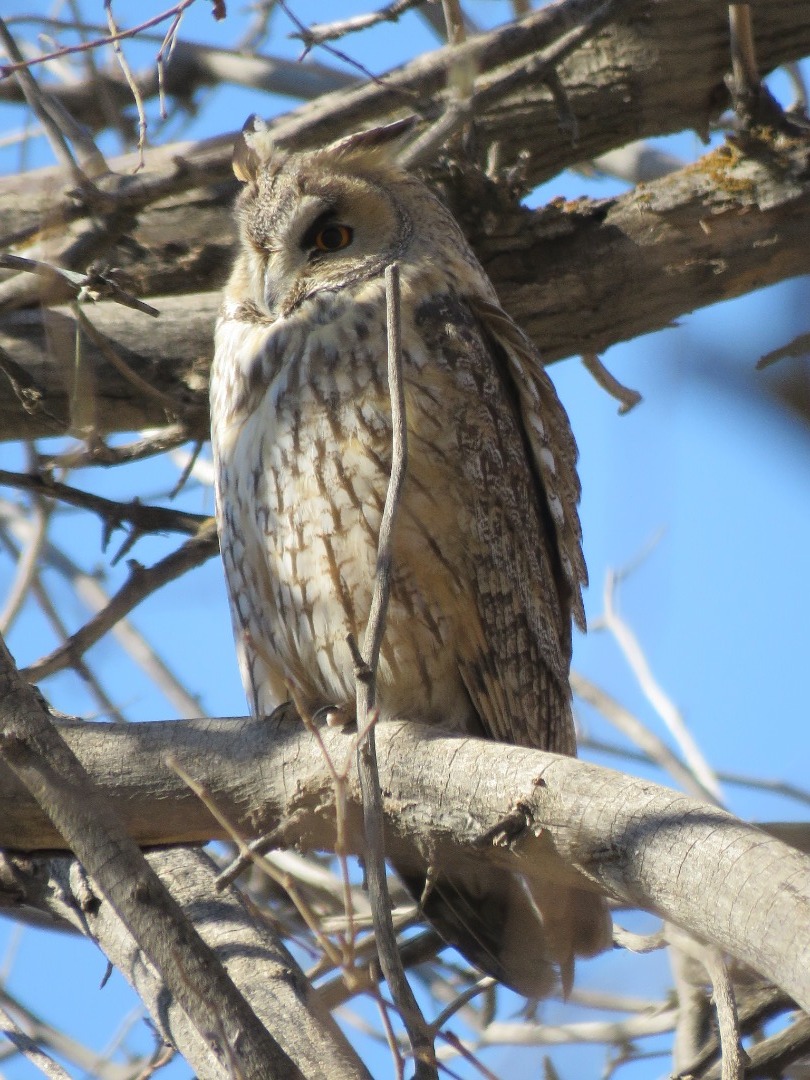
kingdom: Animalia
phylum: Chordata
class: Aves
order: Strigiformes
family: Strigidae
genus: Asio
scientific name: Asio otus
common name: Long-eared owl
